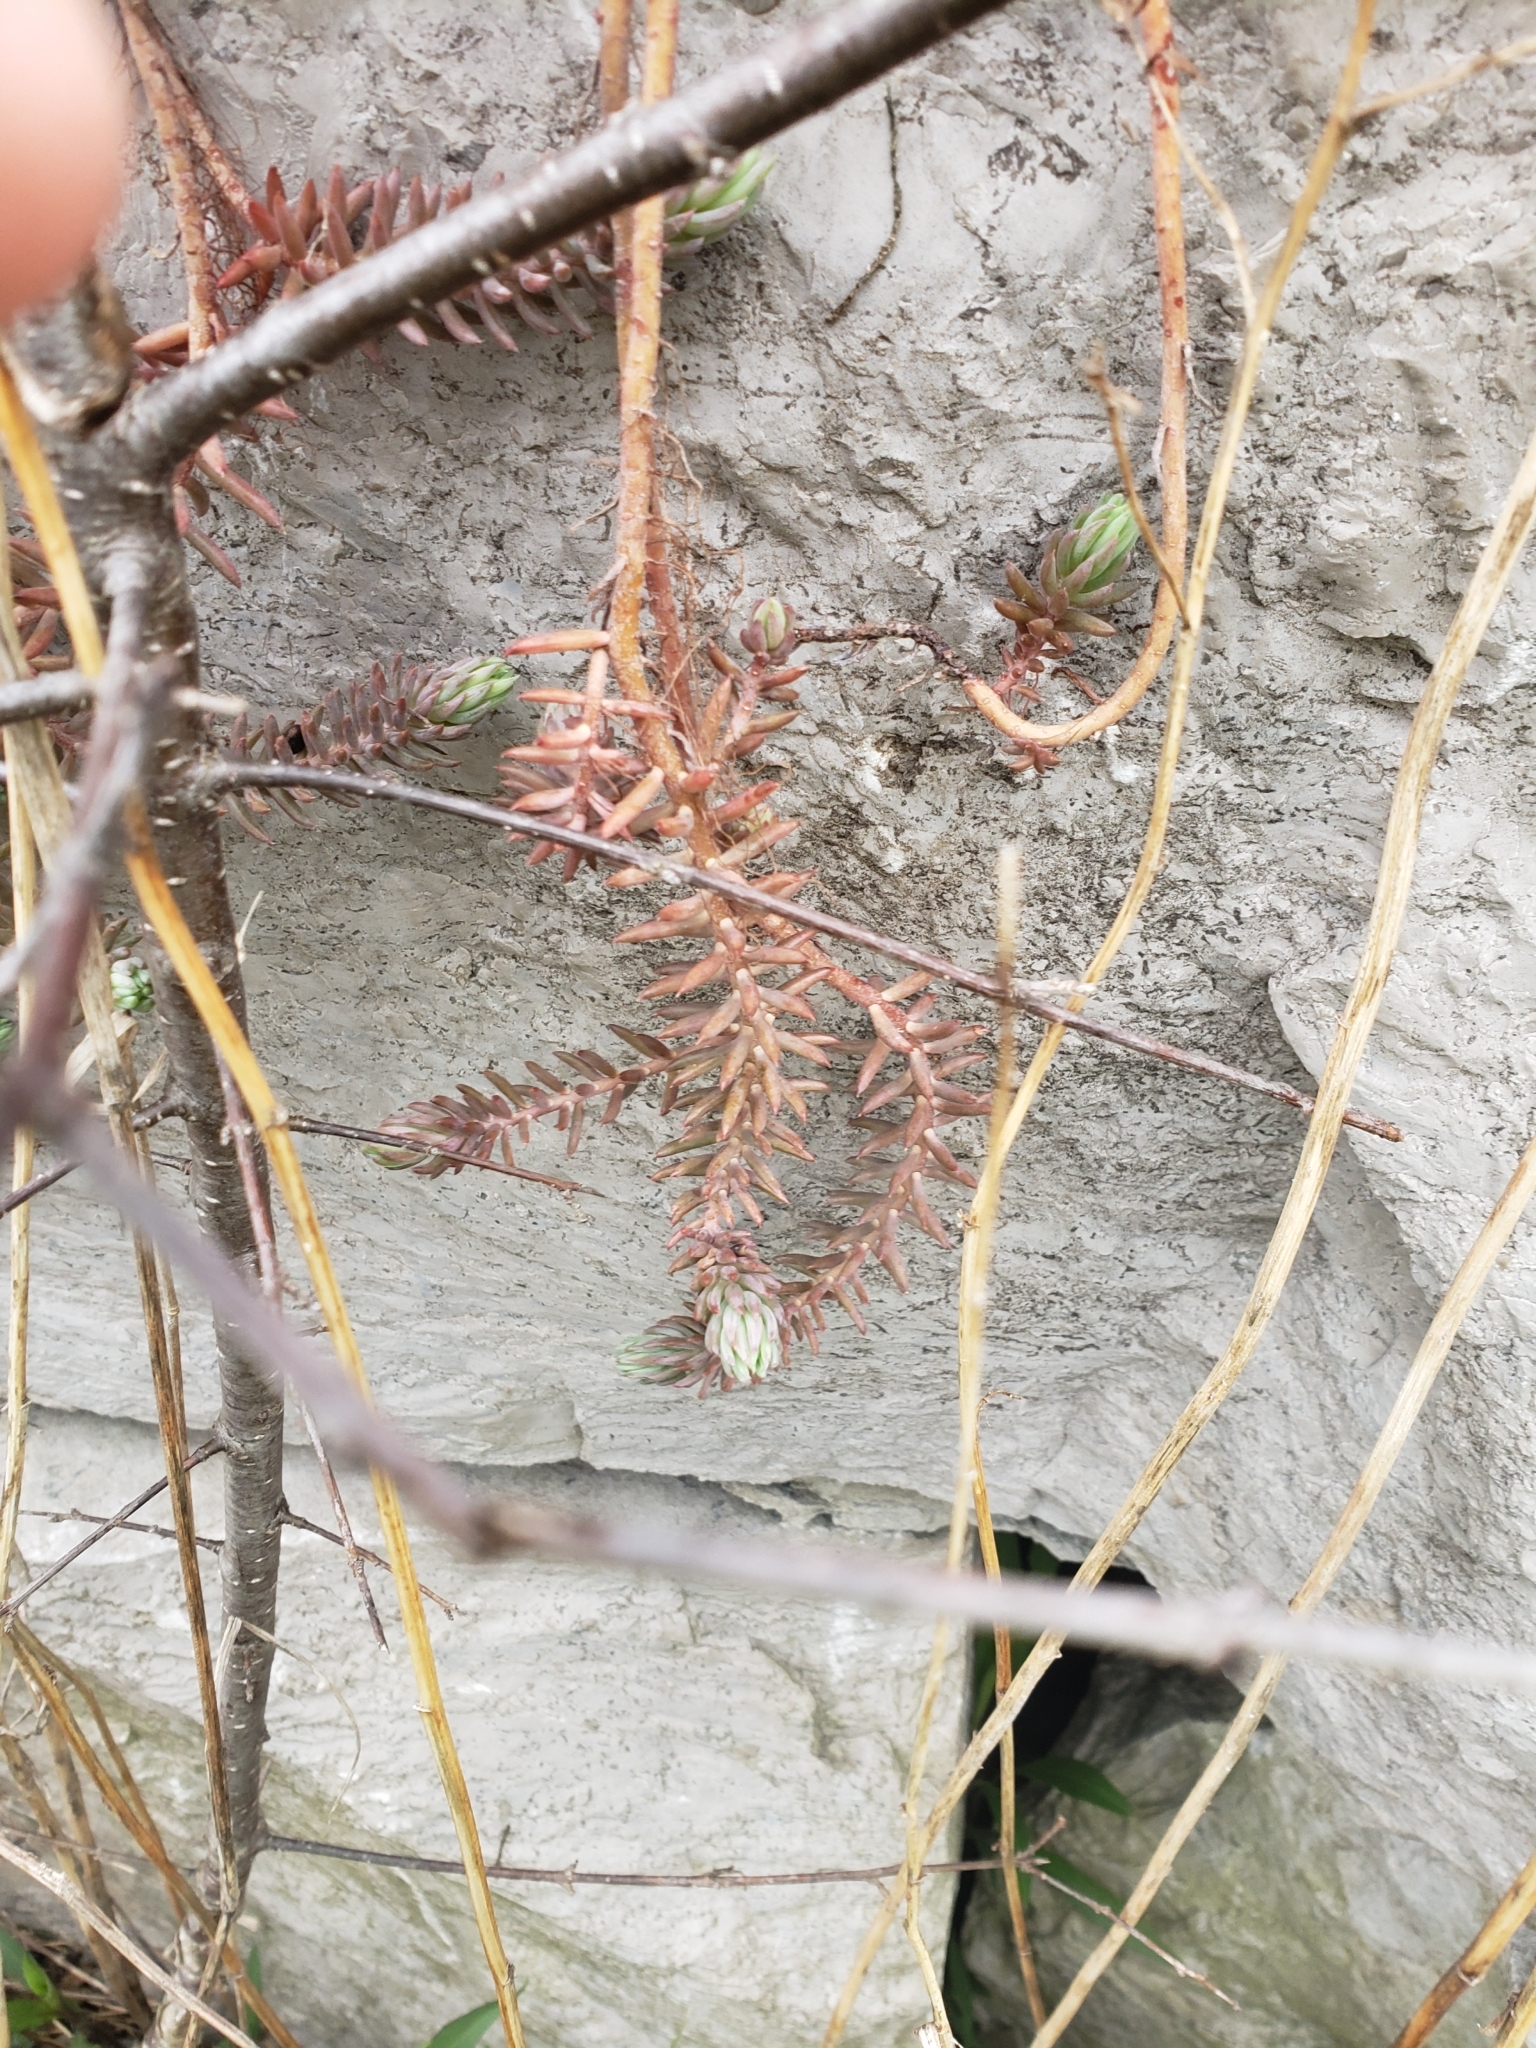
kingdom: Plantae
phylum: Tracheophyta
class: Magnoliopsida
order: Saxifragales
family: Crassulaceae
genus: Petrosedum
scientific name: Petrosedum
